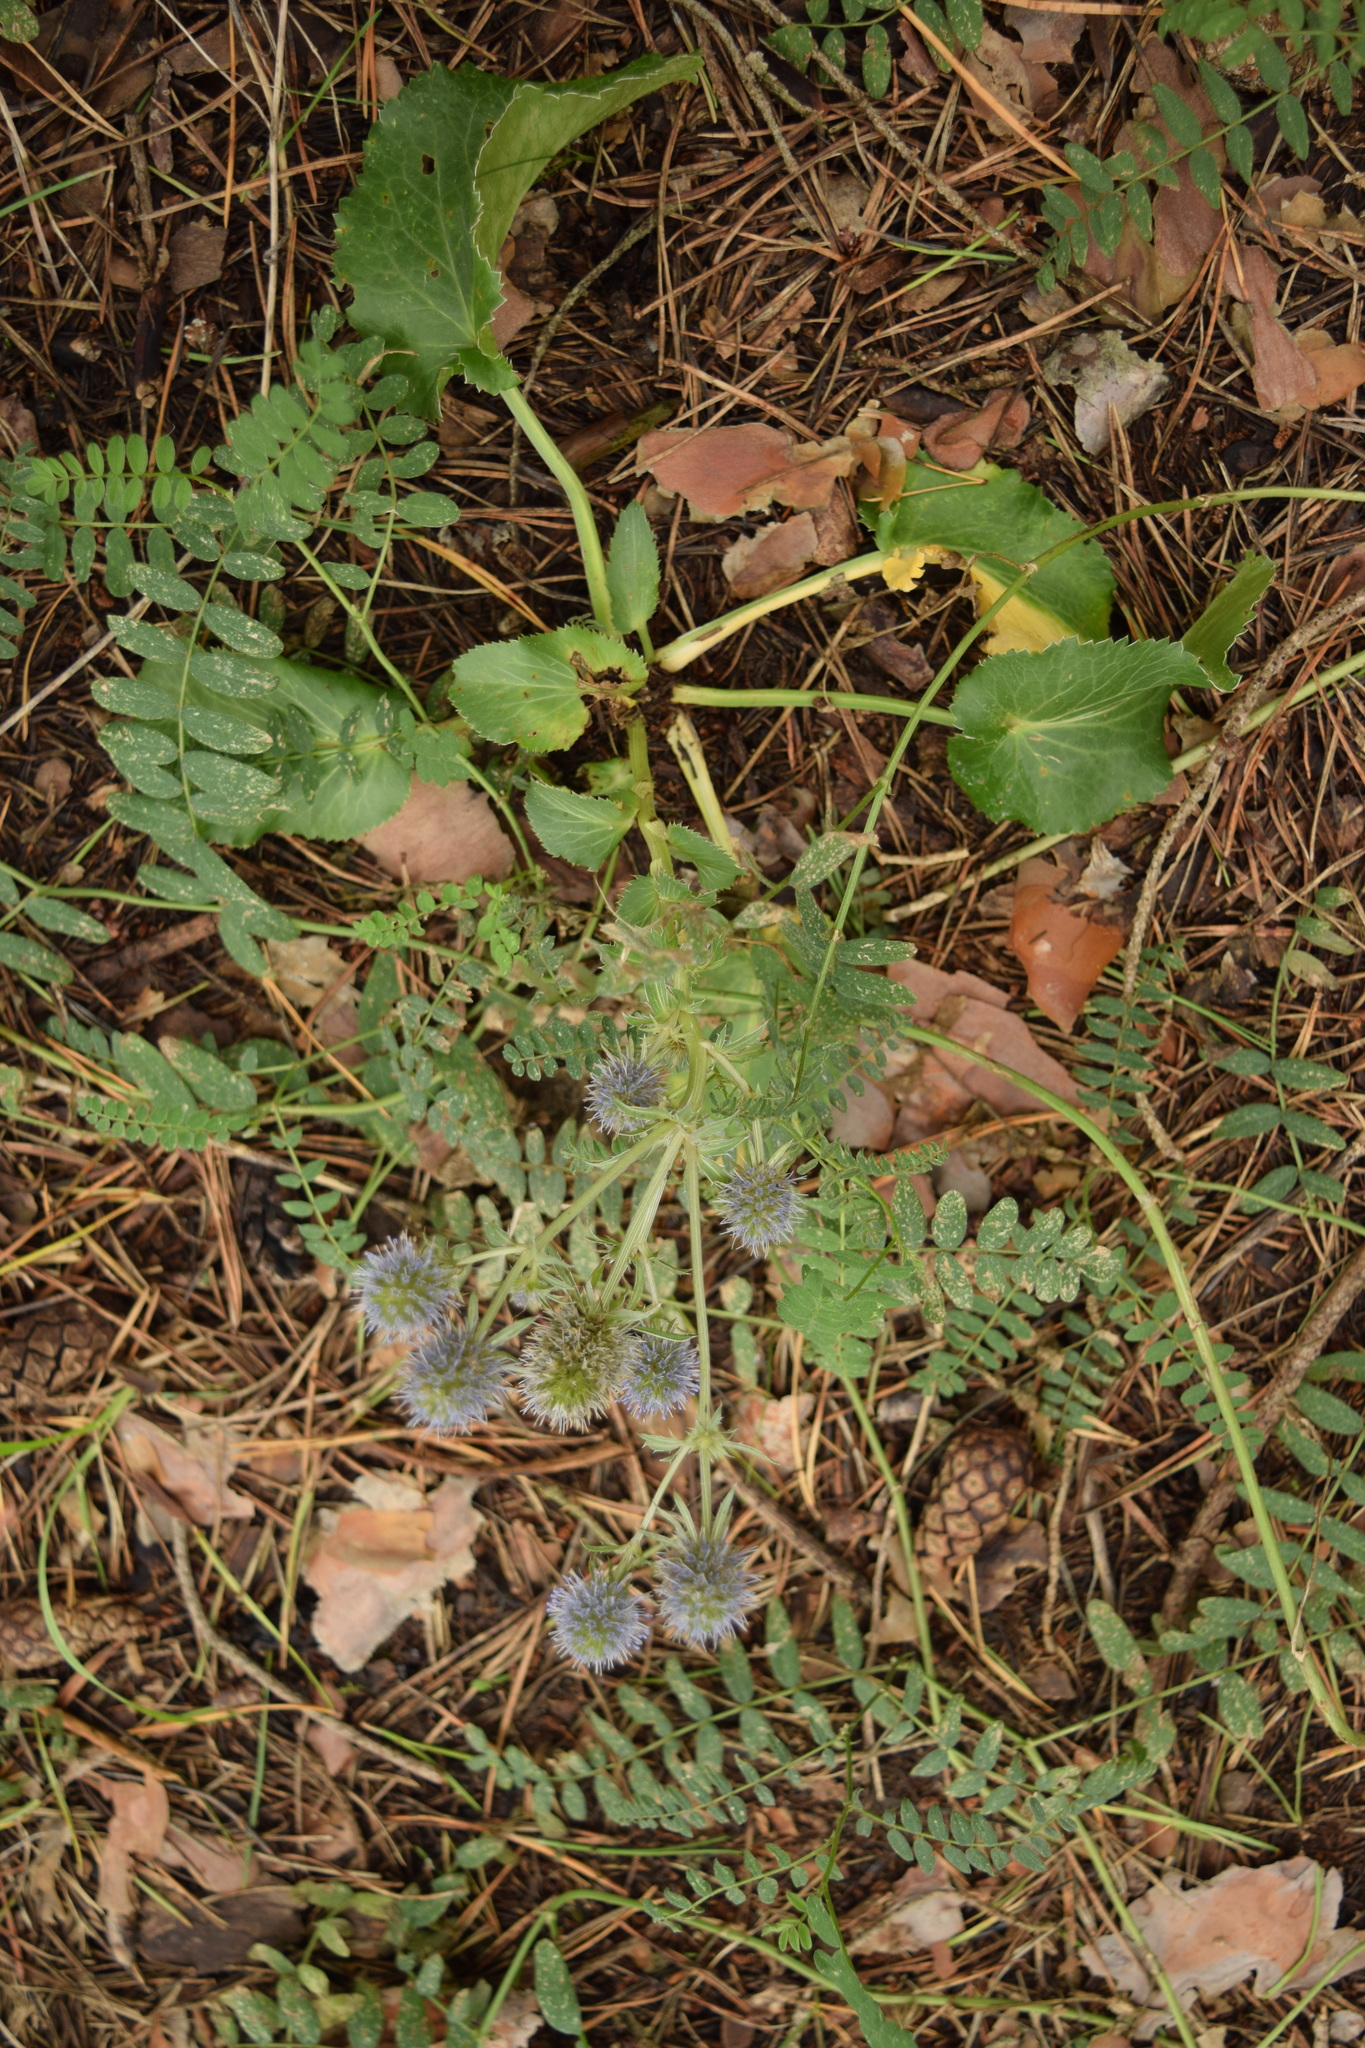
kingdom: Plantae
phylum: Tracheophyta
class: Magnoliopsida
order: Apiales
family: Apiaceae
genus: Eryngium
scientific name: Eryngium planum
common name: Blue eryngo
